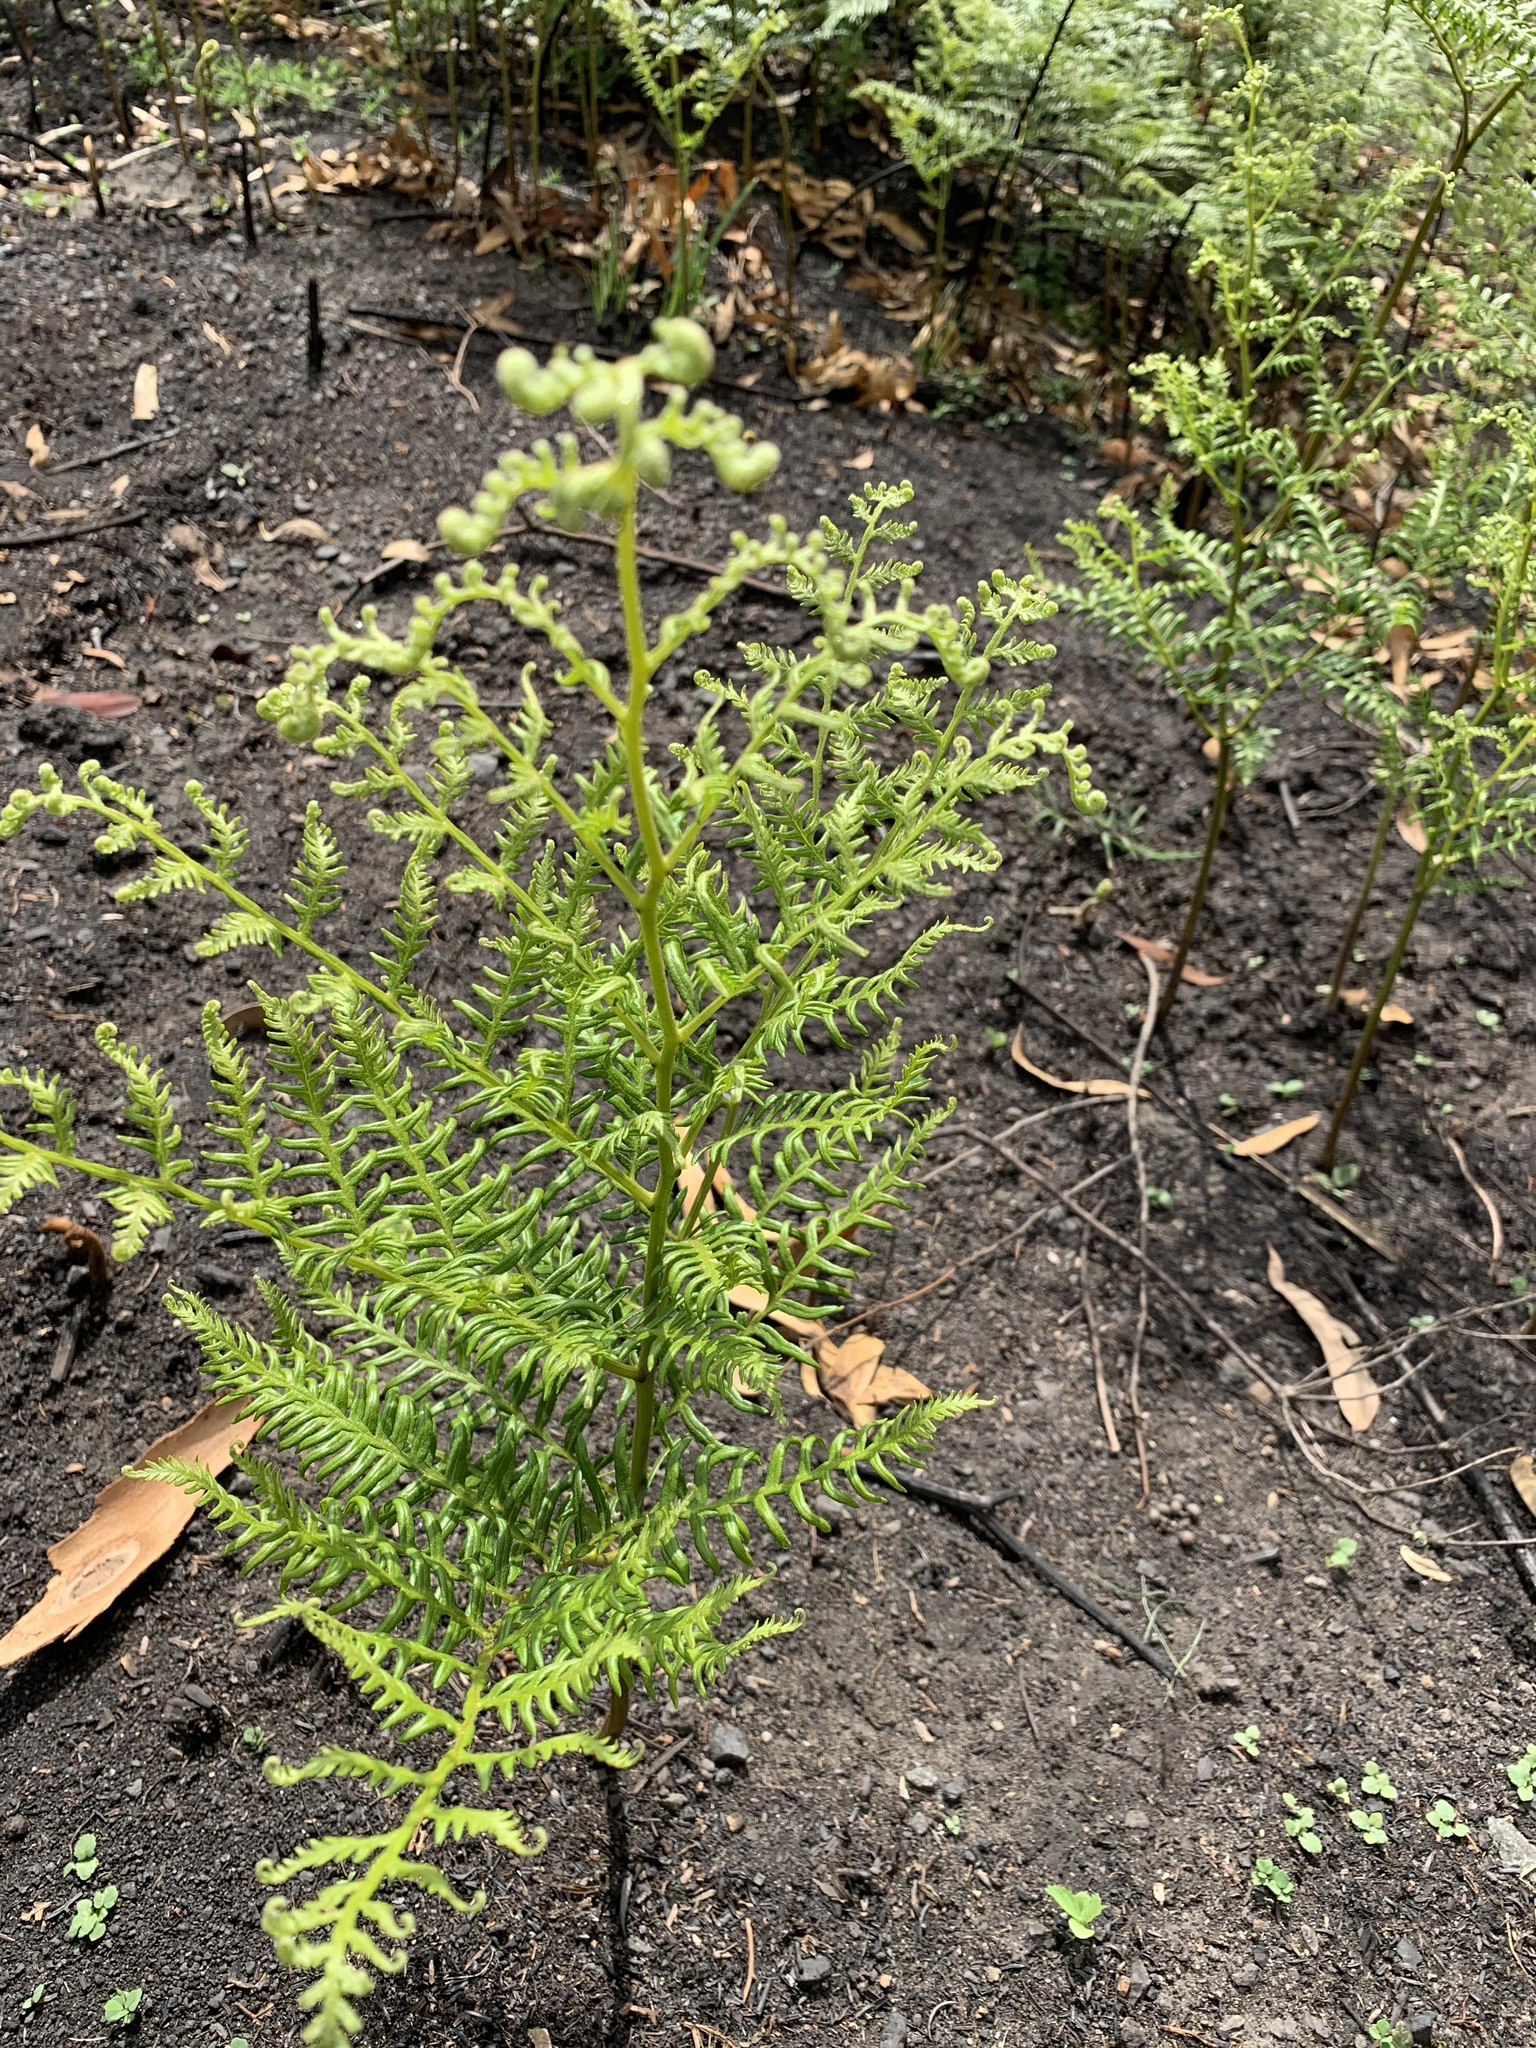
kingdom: Plantae
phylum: Tracheophyta
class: Polypodiopsida
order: Polypodiales
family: Dennstaedtiaceae
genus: Pteridium
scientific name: Pteridium esculentum
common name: Bracken fern
